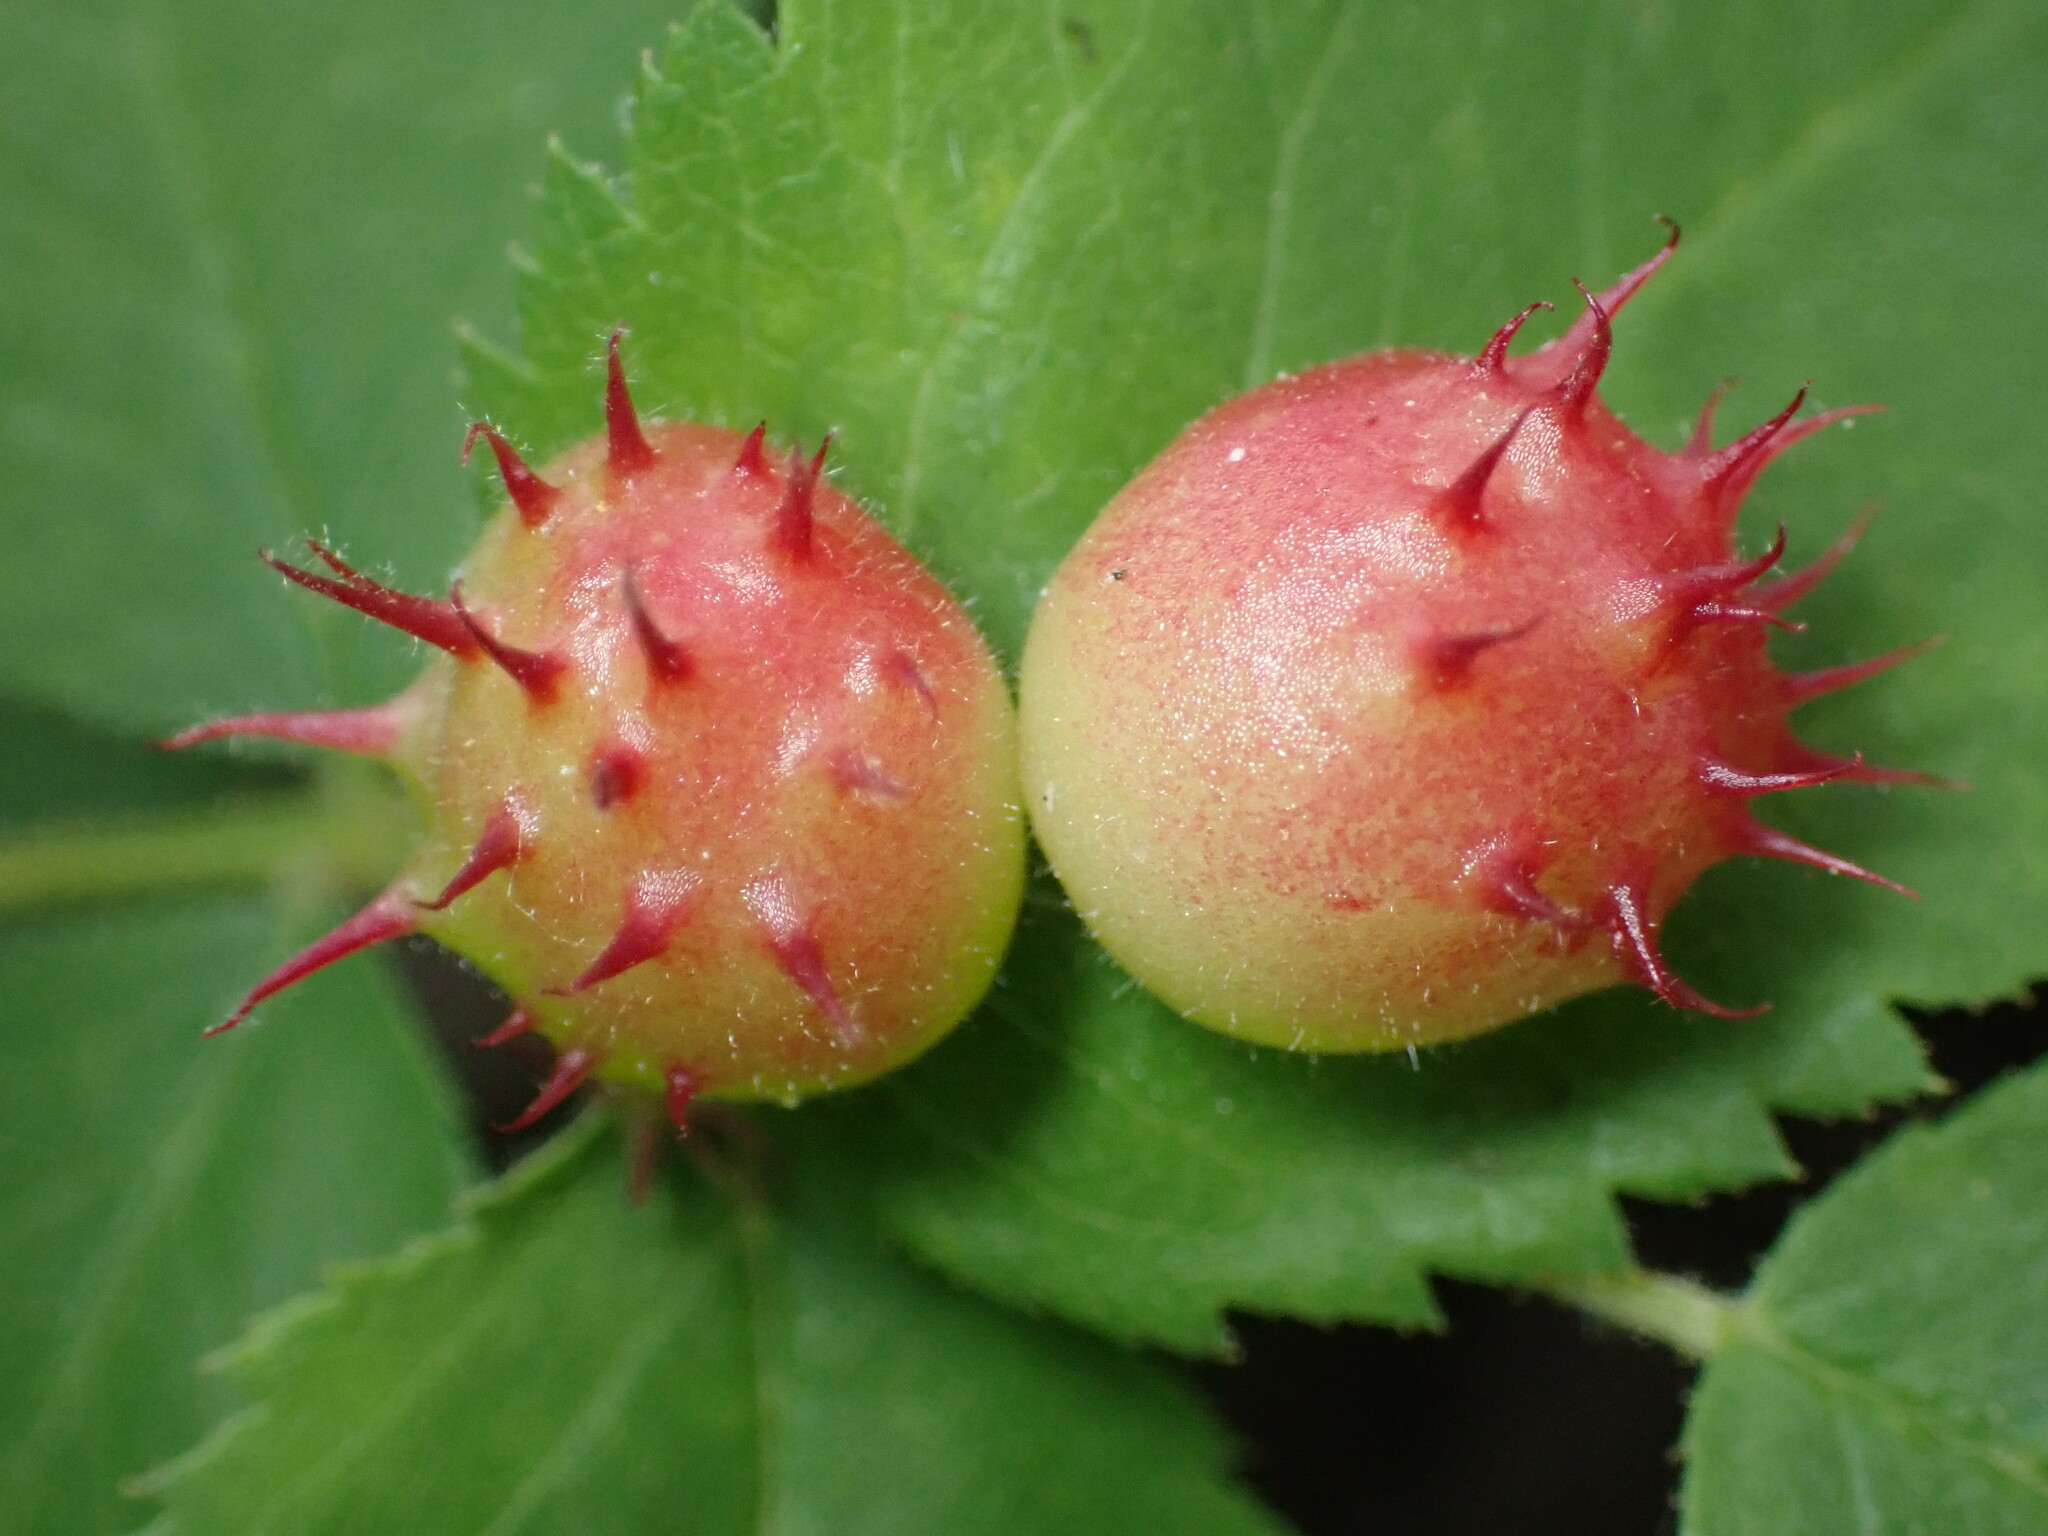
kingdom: Animalia
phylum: Arthropoda
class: Insecta
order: Hymenoptera
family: Cynipidae
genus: Diplolepis
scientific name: Diplolepis polita
